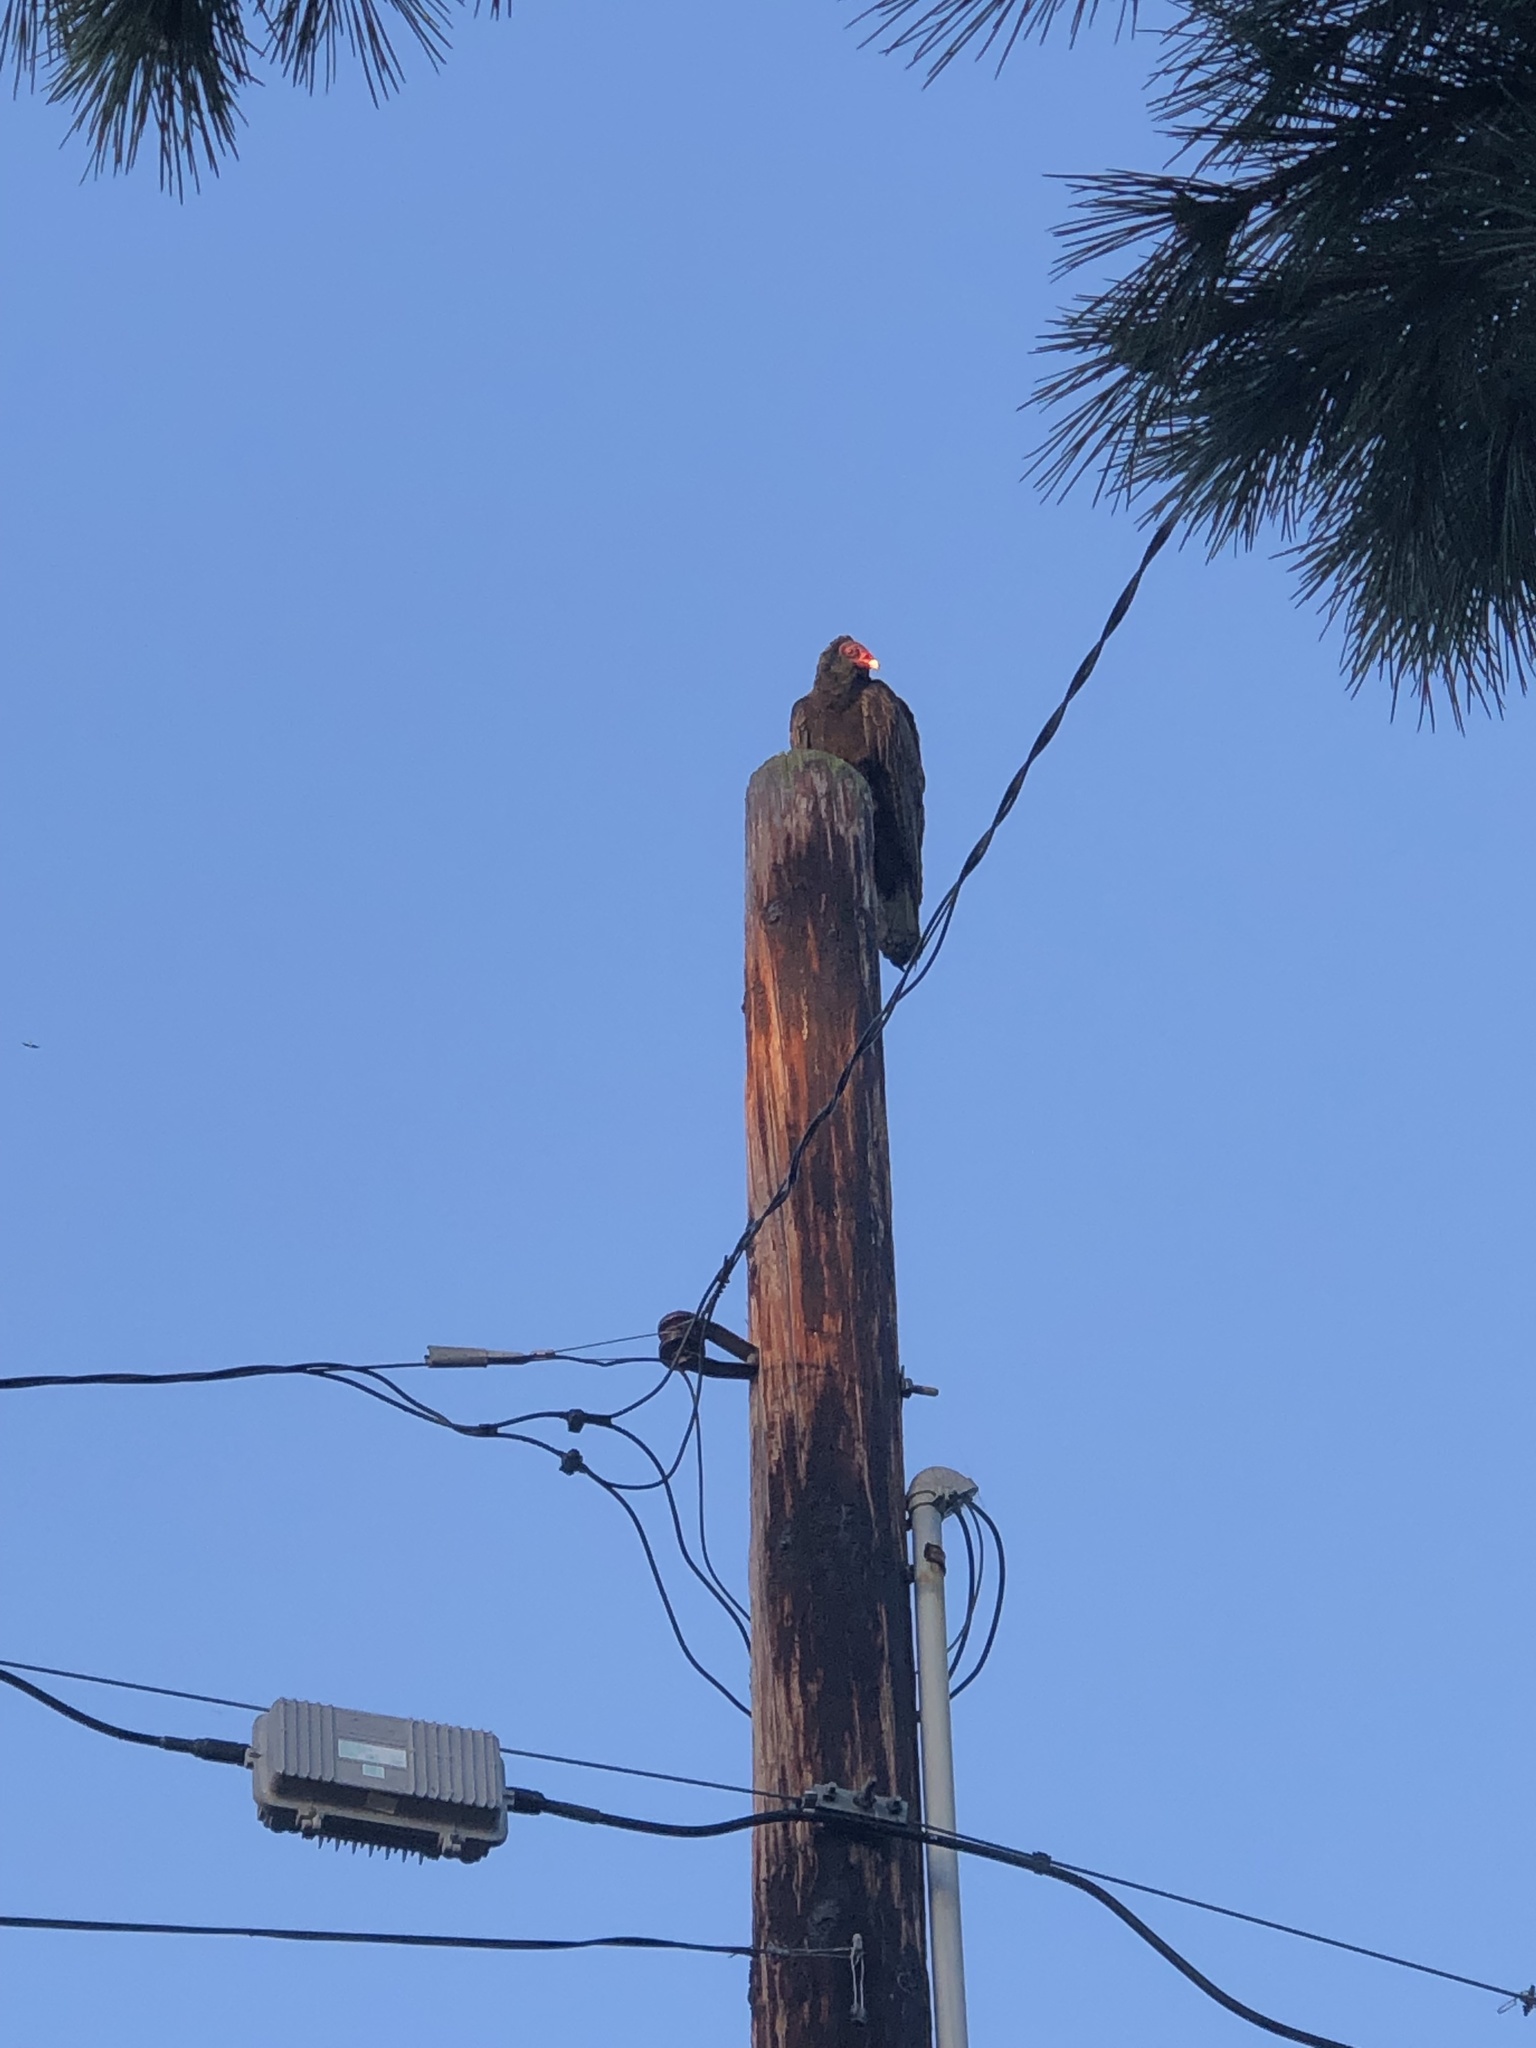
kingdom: Animalia
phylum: Chordata
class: Aves
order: Accipitriformes
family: Cathartidae
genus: Cathartes
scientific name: Cathartes aura
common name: Turkey vulture
